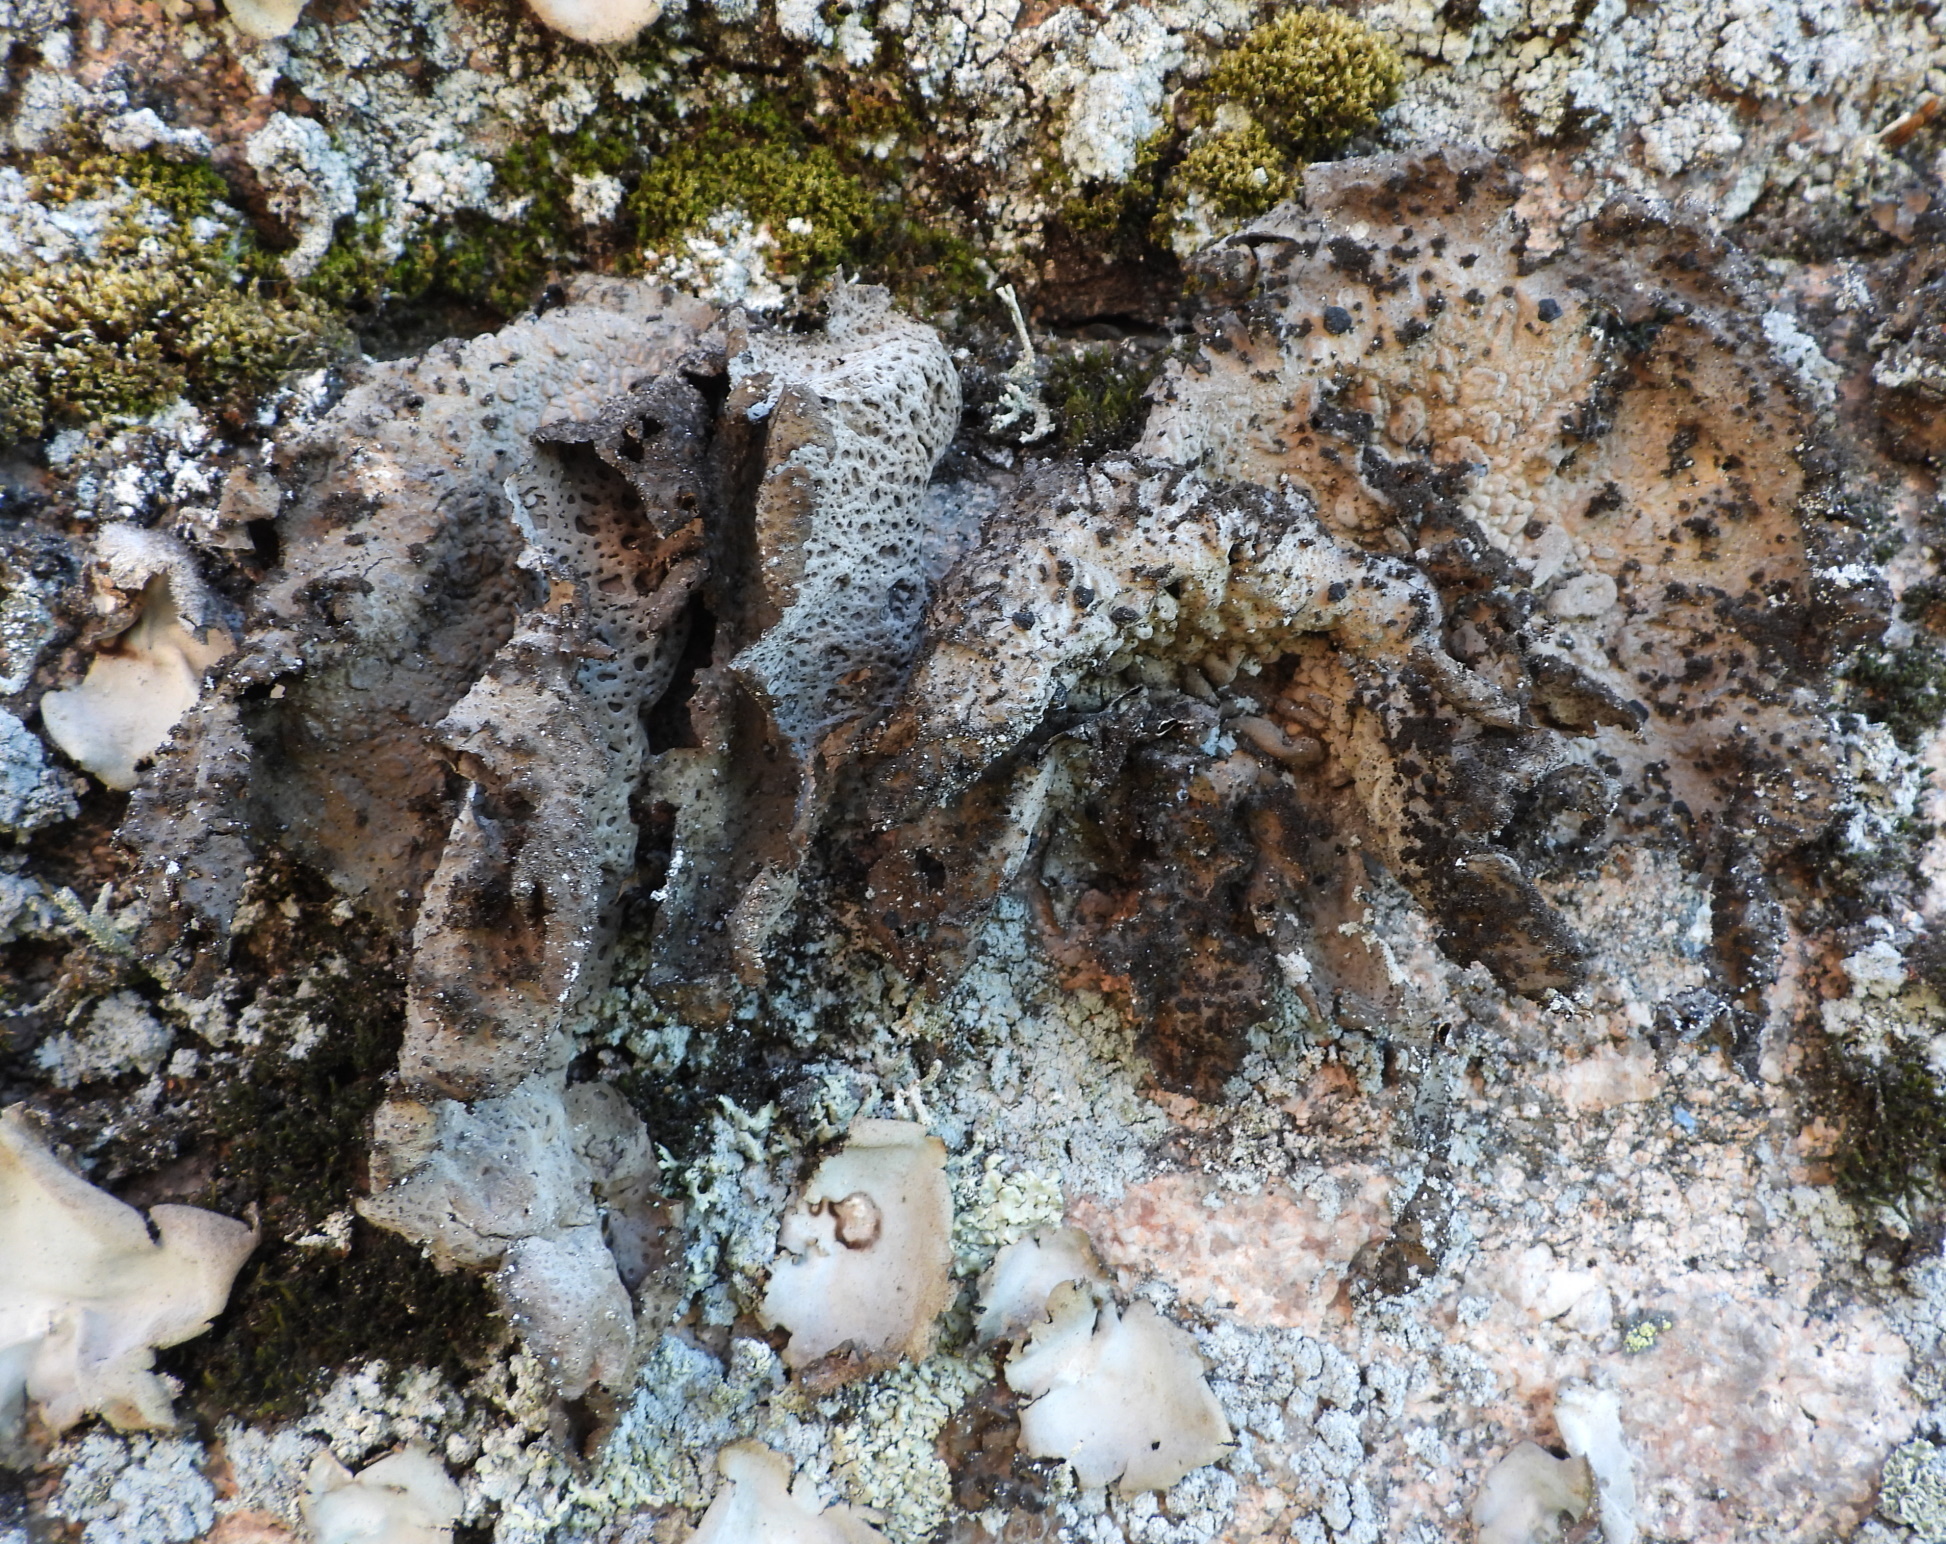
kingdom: Fungi
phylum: Ascomycota
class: Lecanoromycetes
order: Umbilicariales
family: Umbilicariaceae
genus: Lasallia
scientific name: Lasallia pustulata
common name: Blistered toadskin lichen
